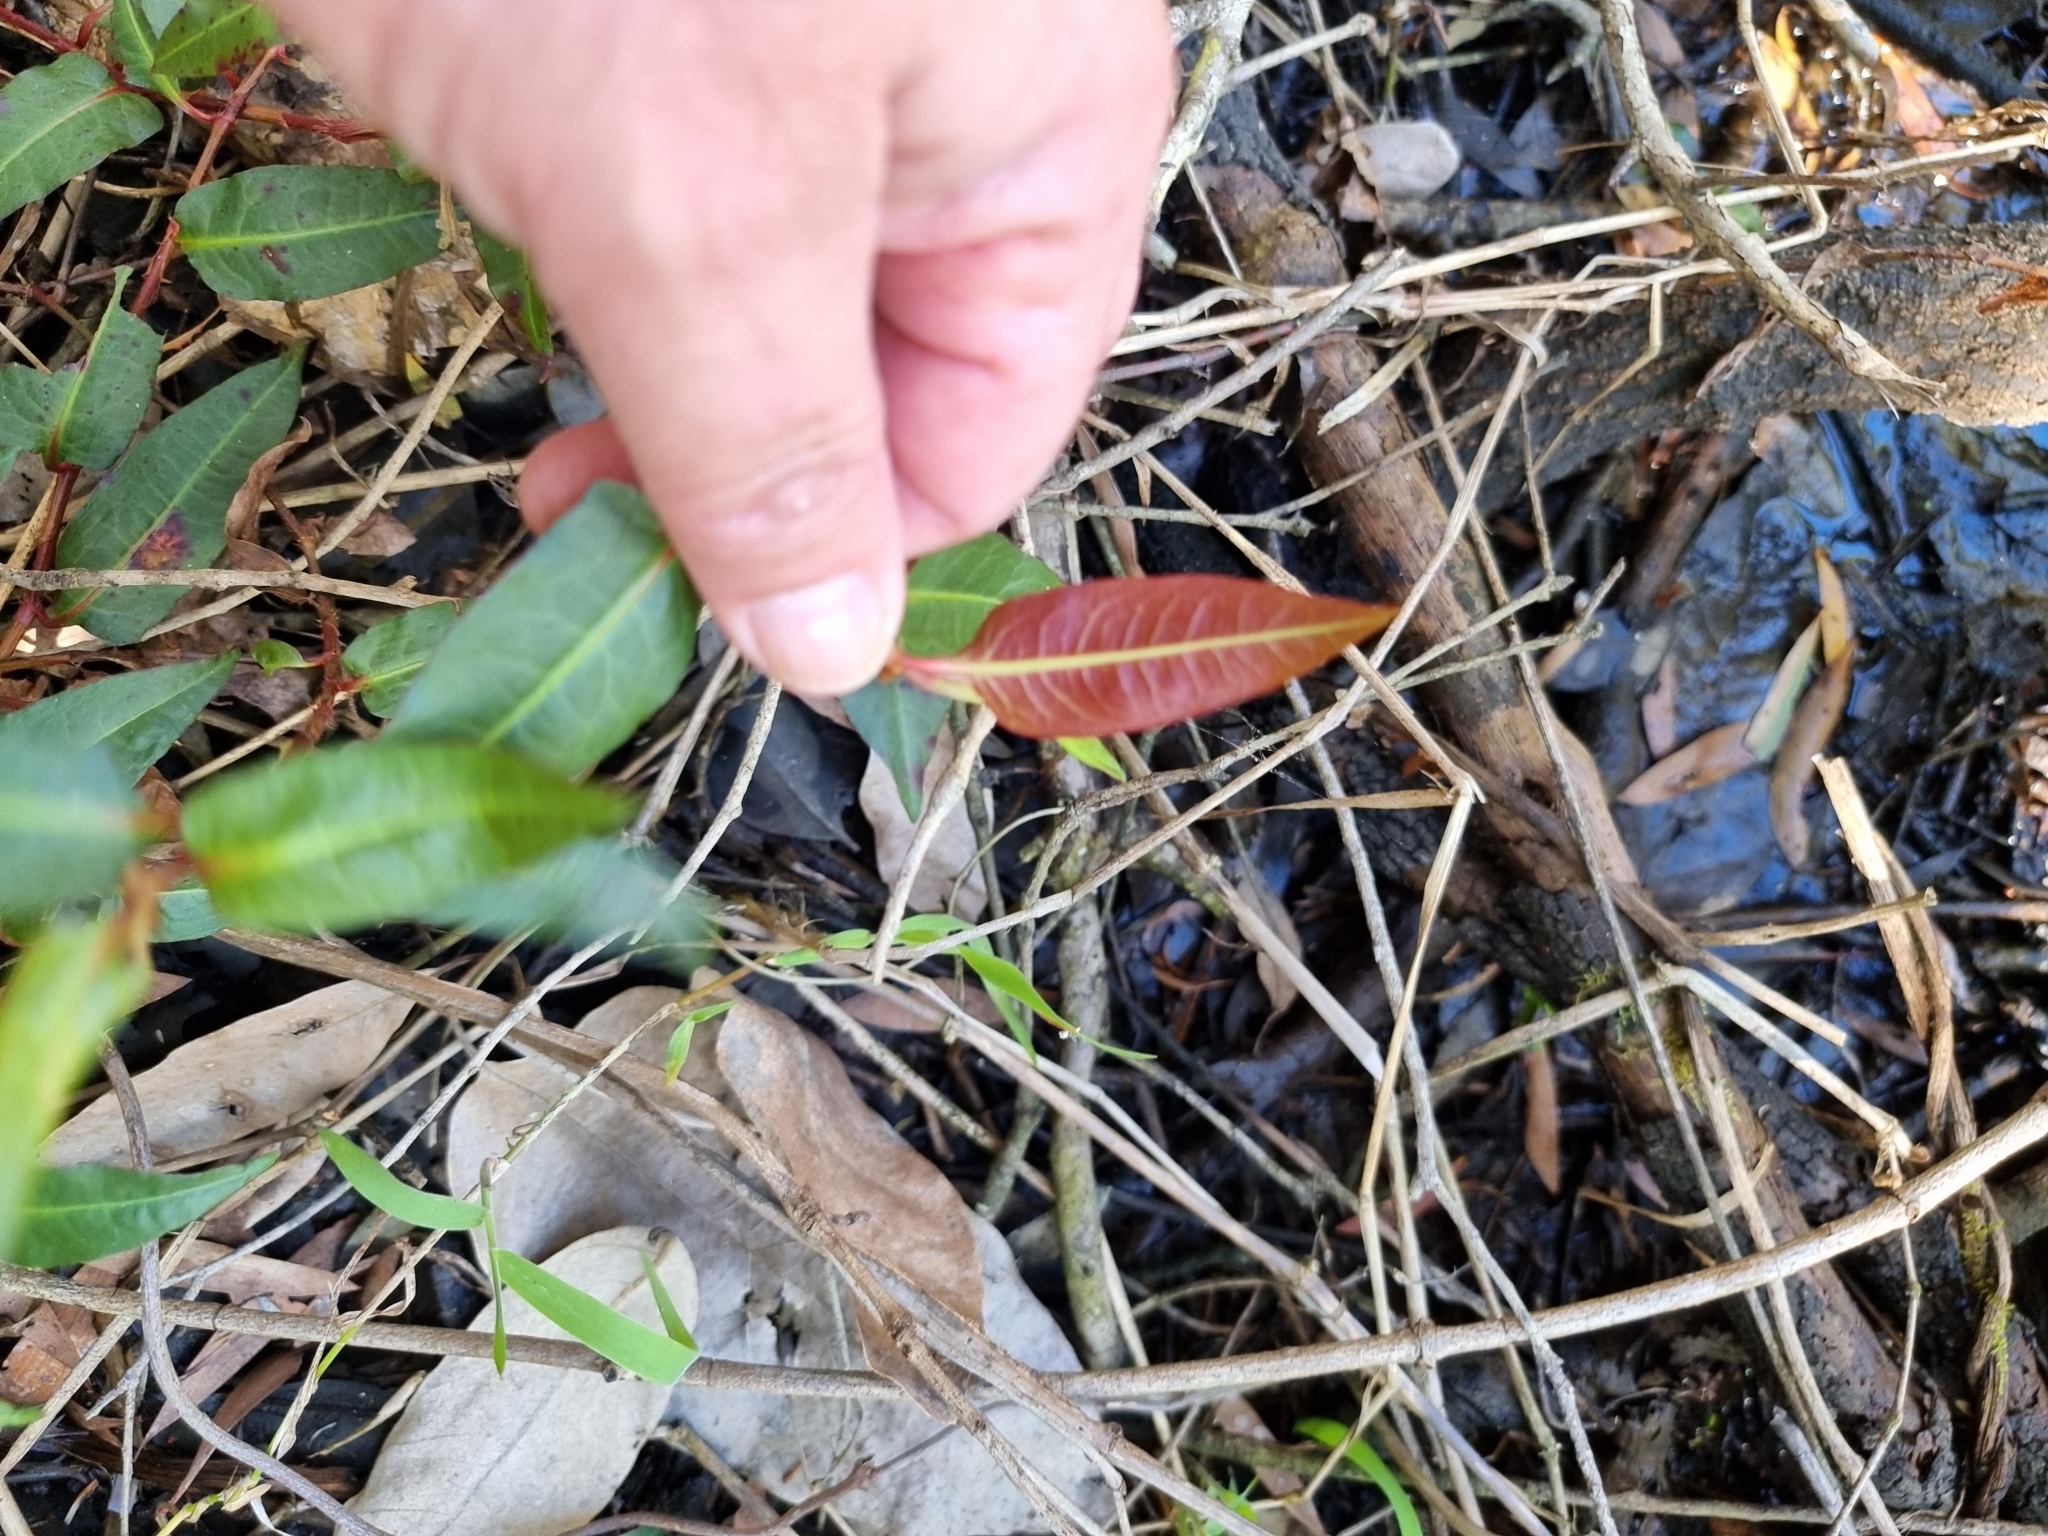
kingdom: Plantae
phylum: Tracheophyta
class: Magnoliopsida
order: Caryophyllales
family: Polygonaceae
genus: Persicaria
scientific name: Persicaria strigosa
